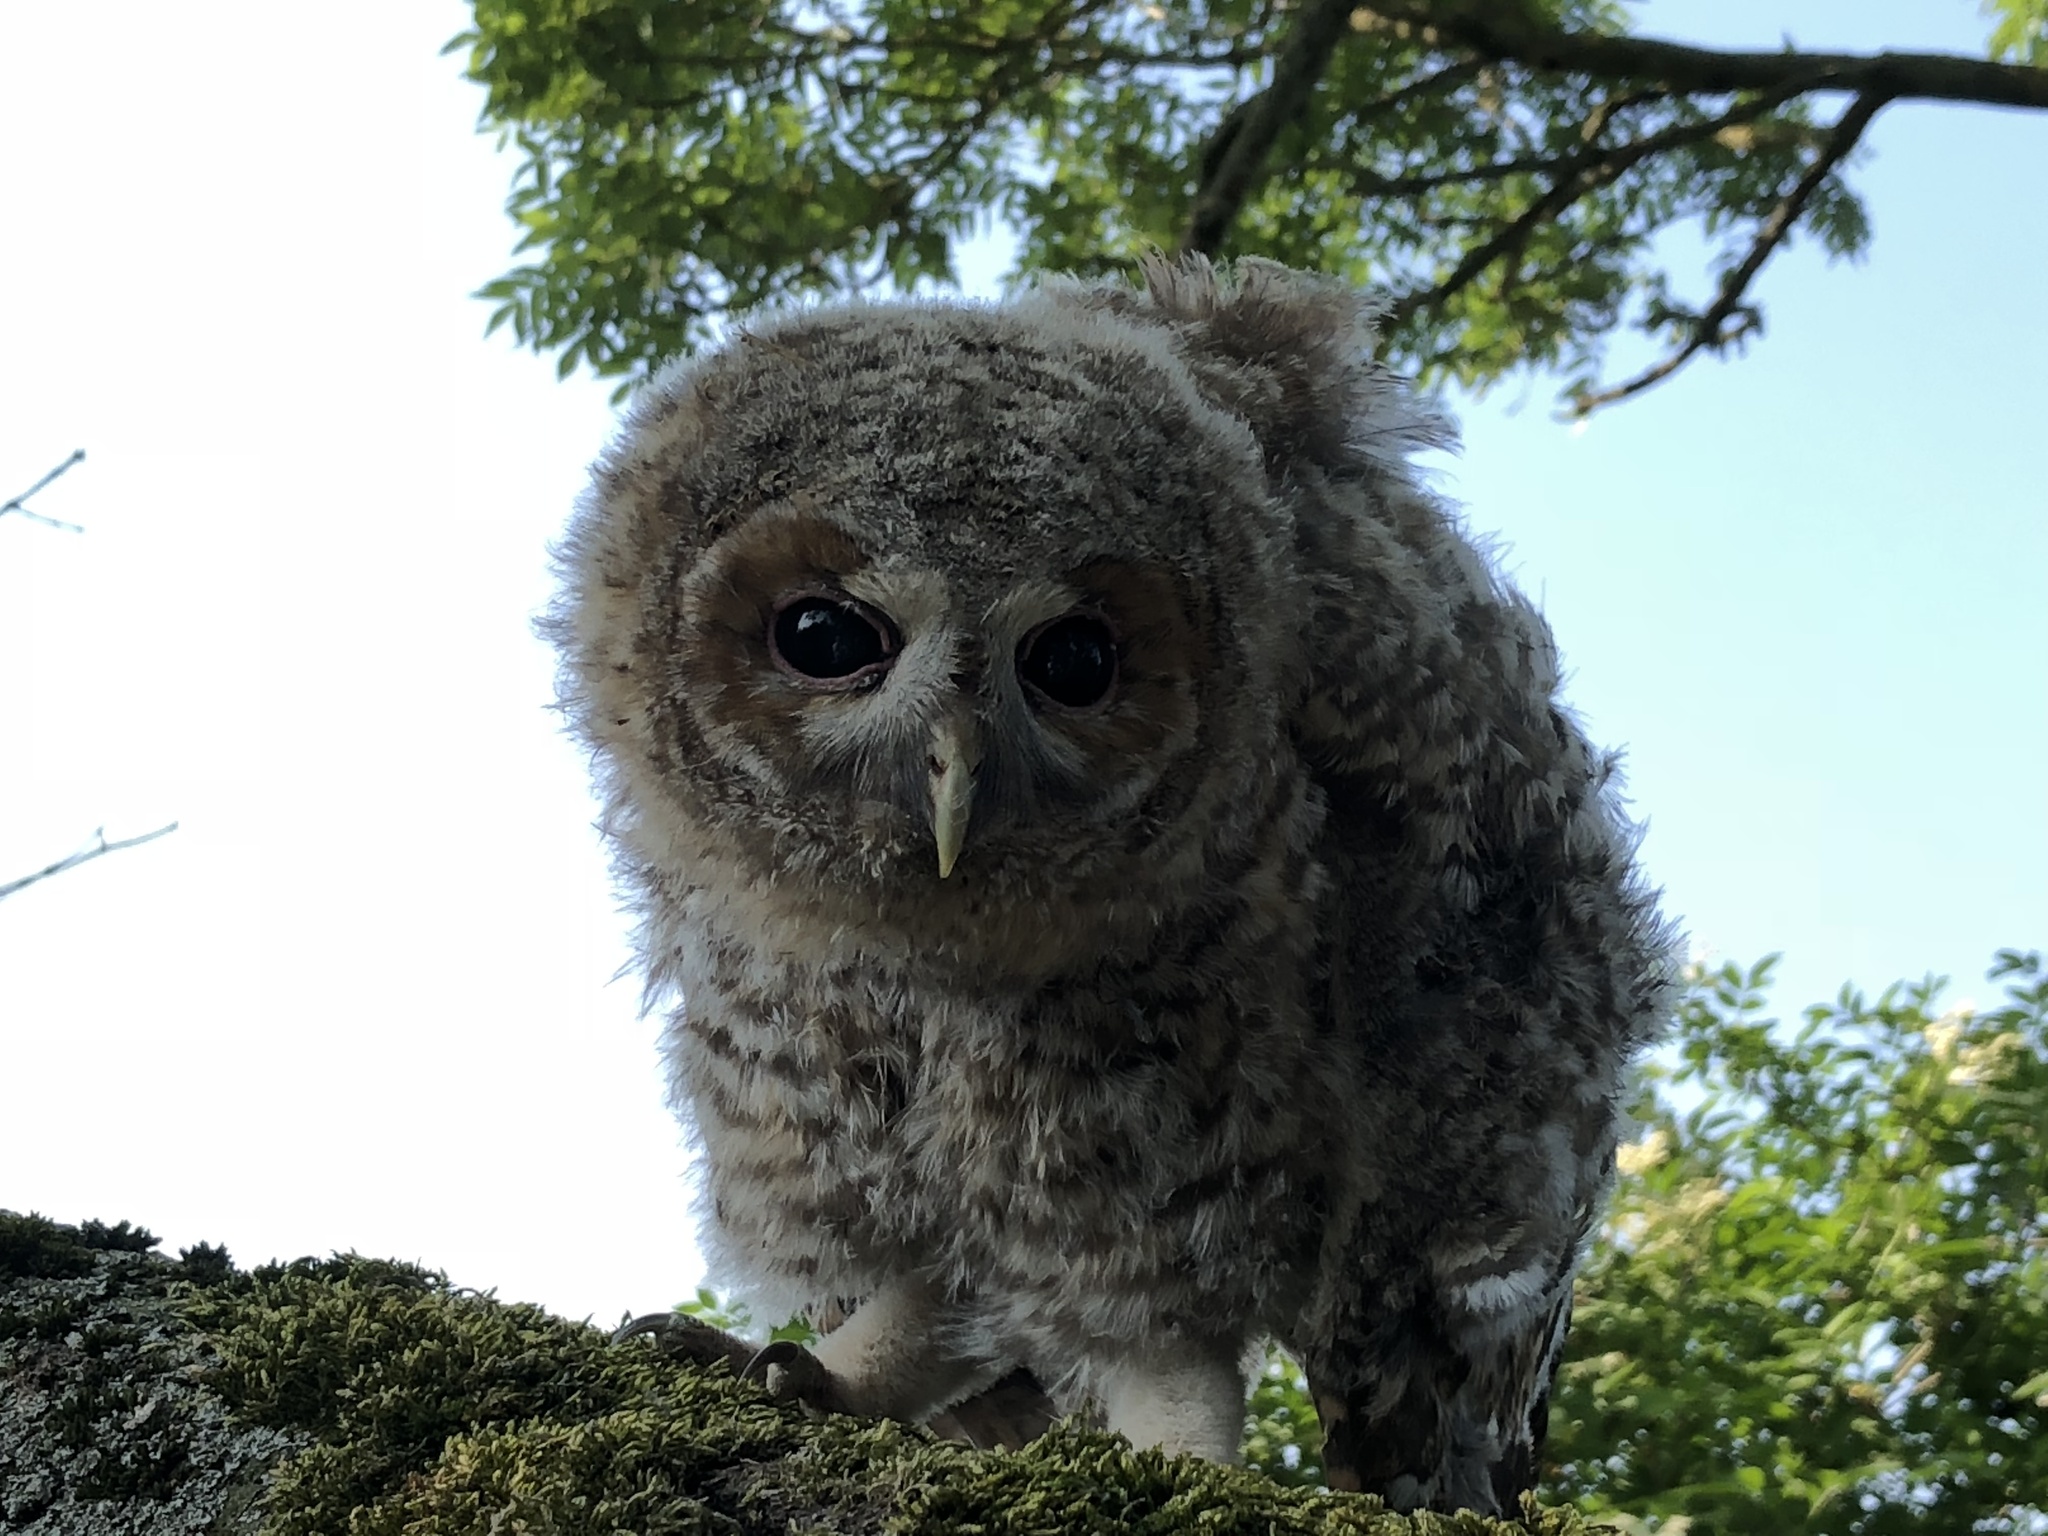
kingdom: Animalia
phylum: Chordata
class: Aves
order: Strigiformes
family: Strigidae
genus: Strix
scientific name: Strix aluco
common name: Tawny owl
